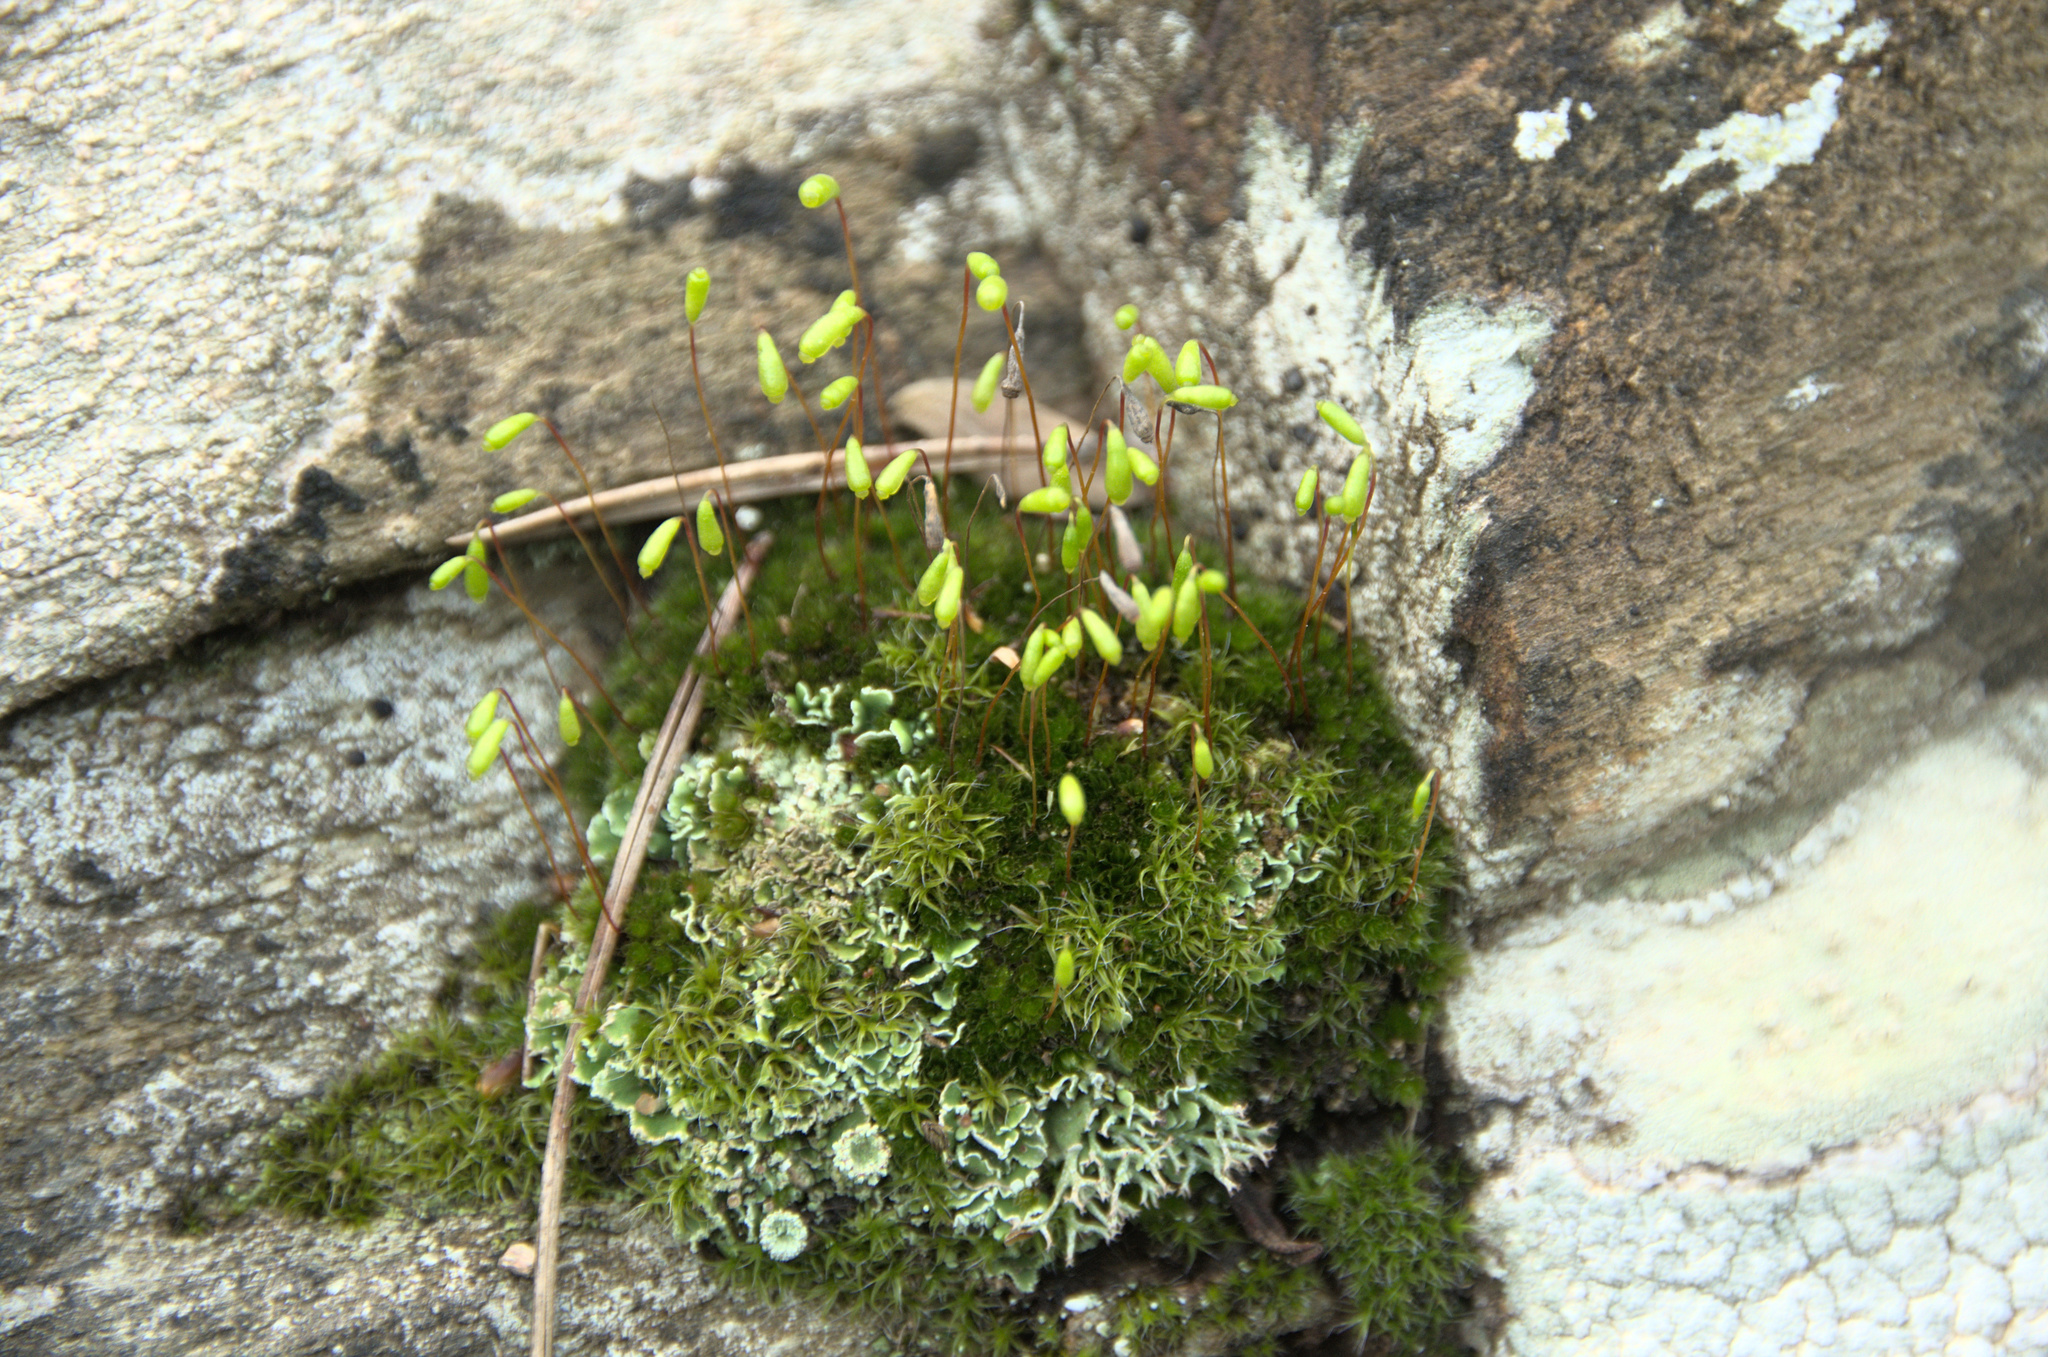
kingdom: Plantae
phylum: Bryophyta
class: Bryopsida
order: Bryales
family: Bryaceae
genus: Rosulabryum
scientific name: Rosulabryum capillare
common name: Capillary thread-moss
